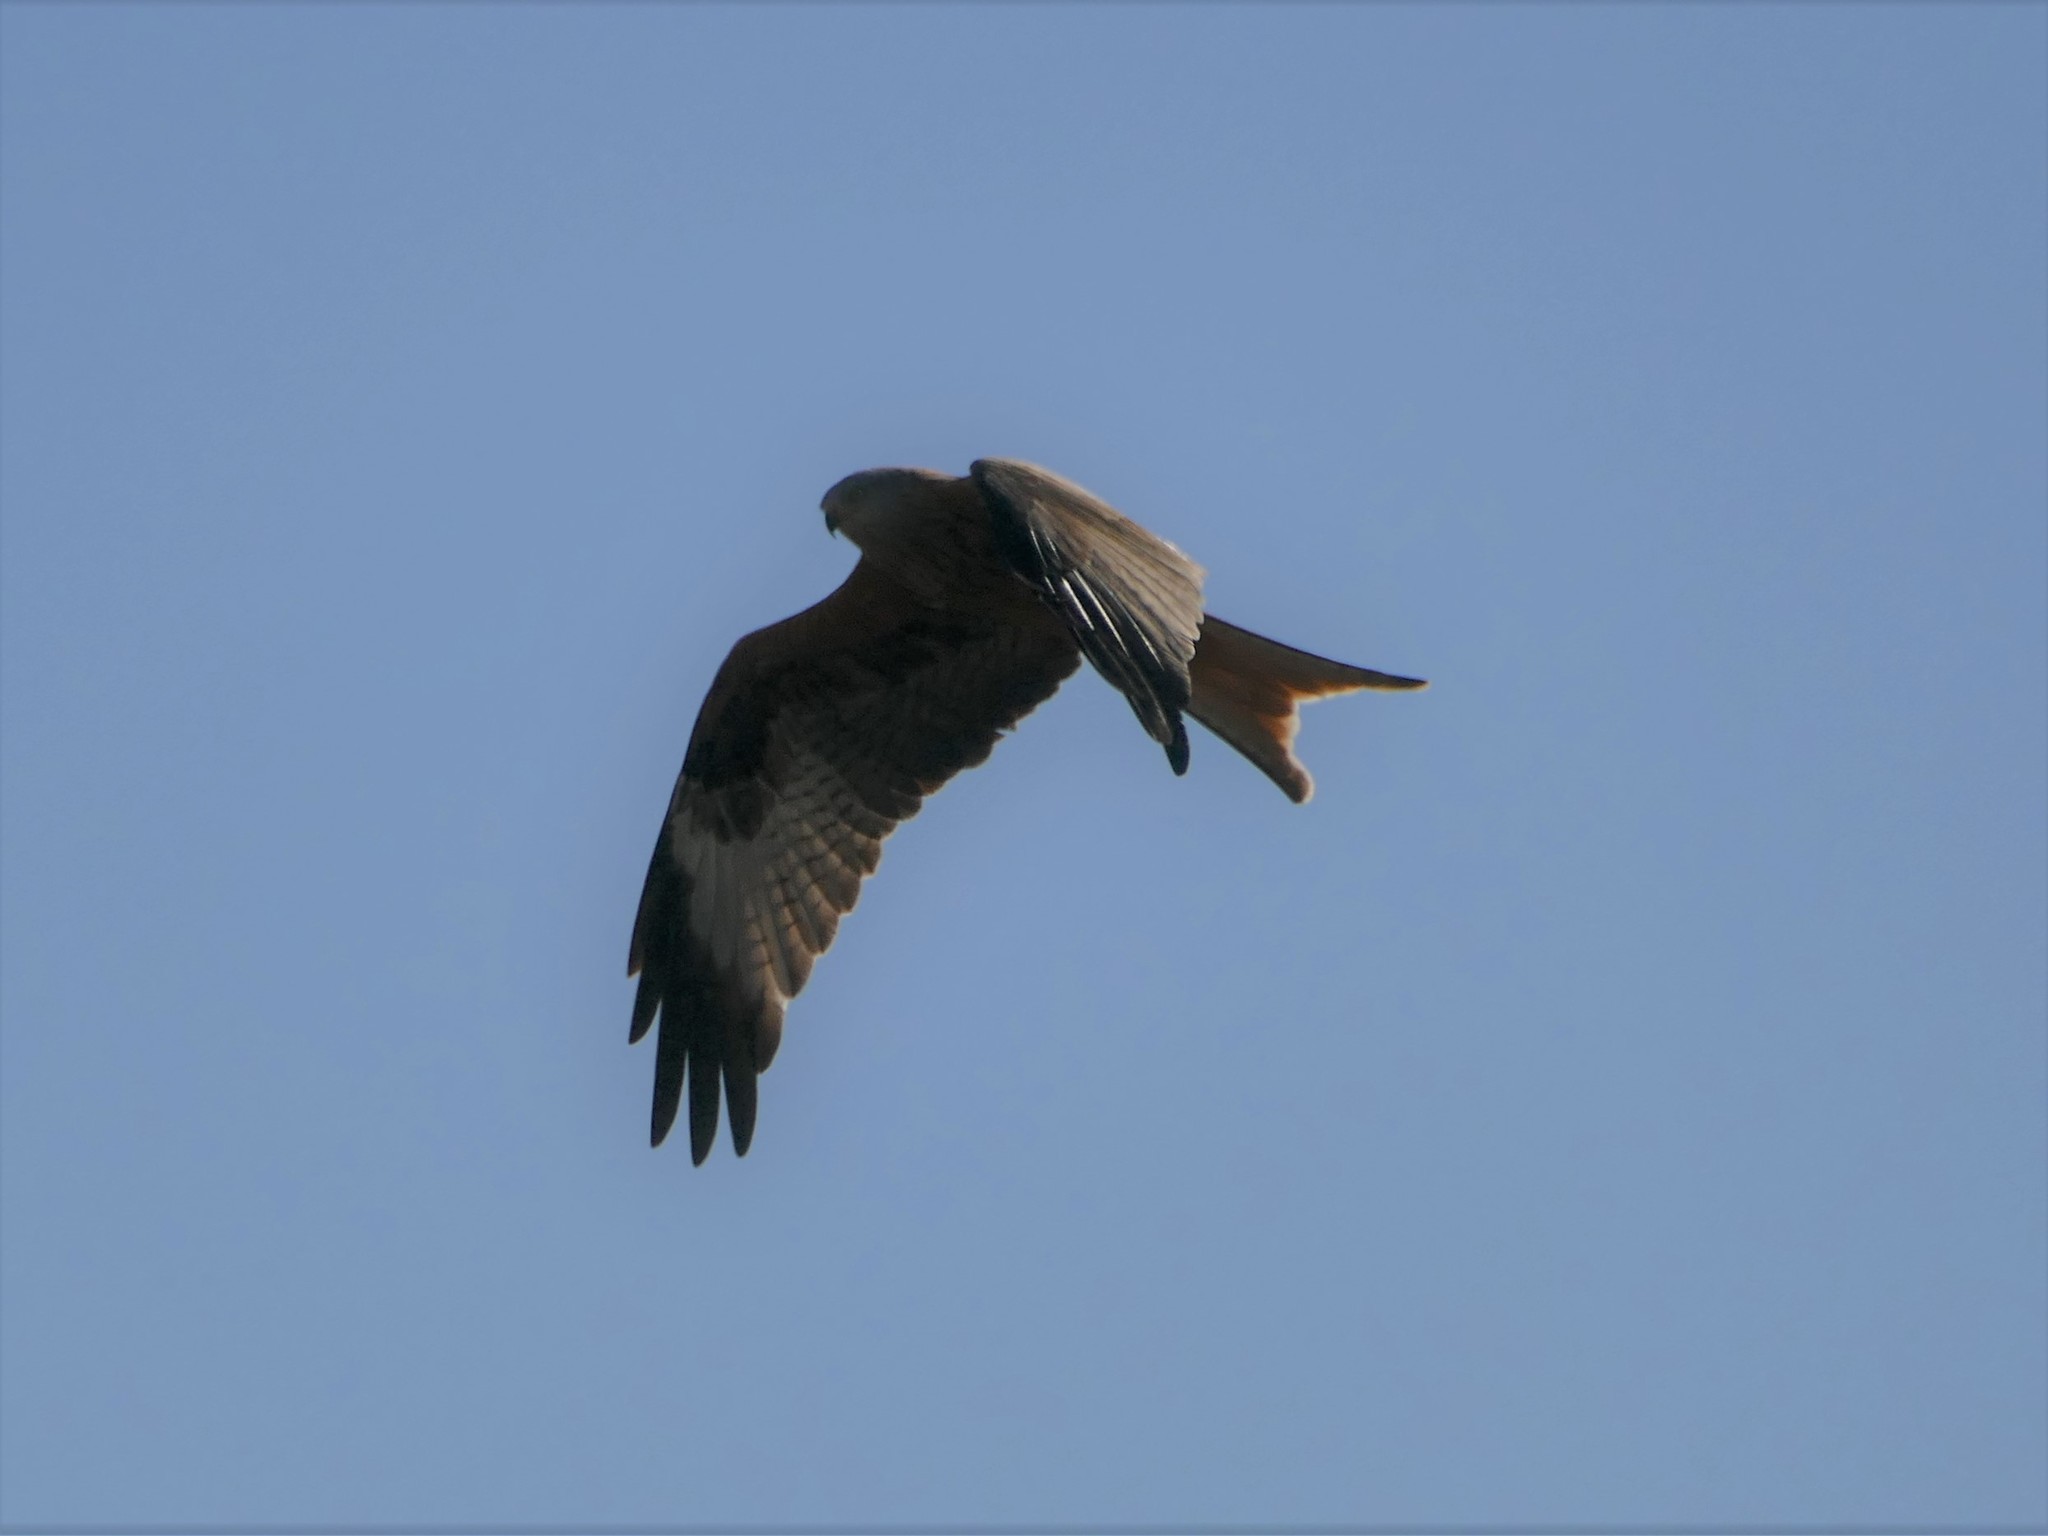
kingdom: Animalia
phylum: Chordata
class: Aves
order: Accipitriformes
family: Accipitridae
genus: Milvus
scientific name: Milvus milvus
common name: Red kite
